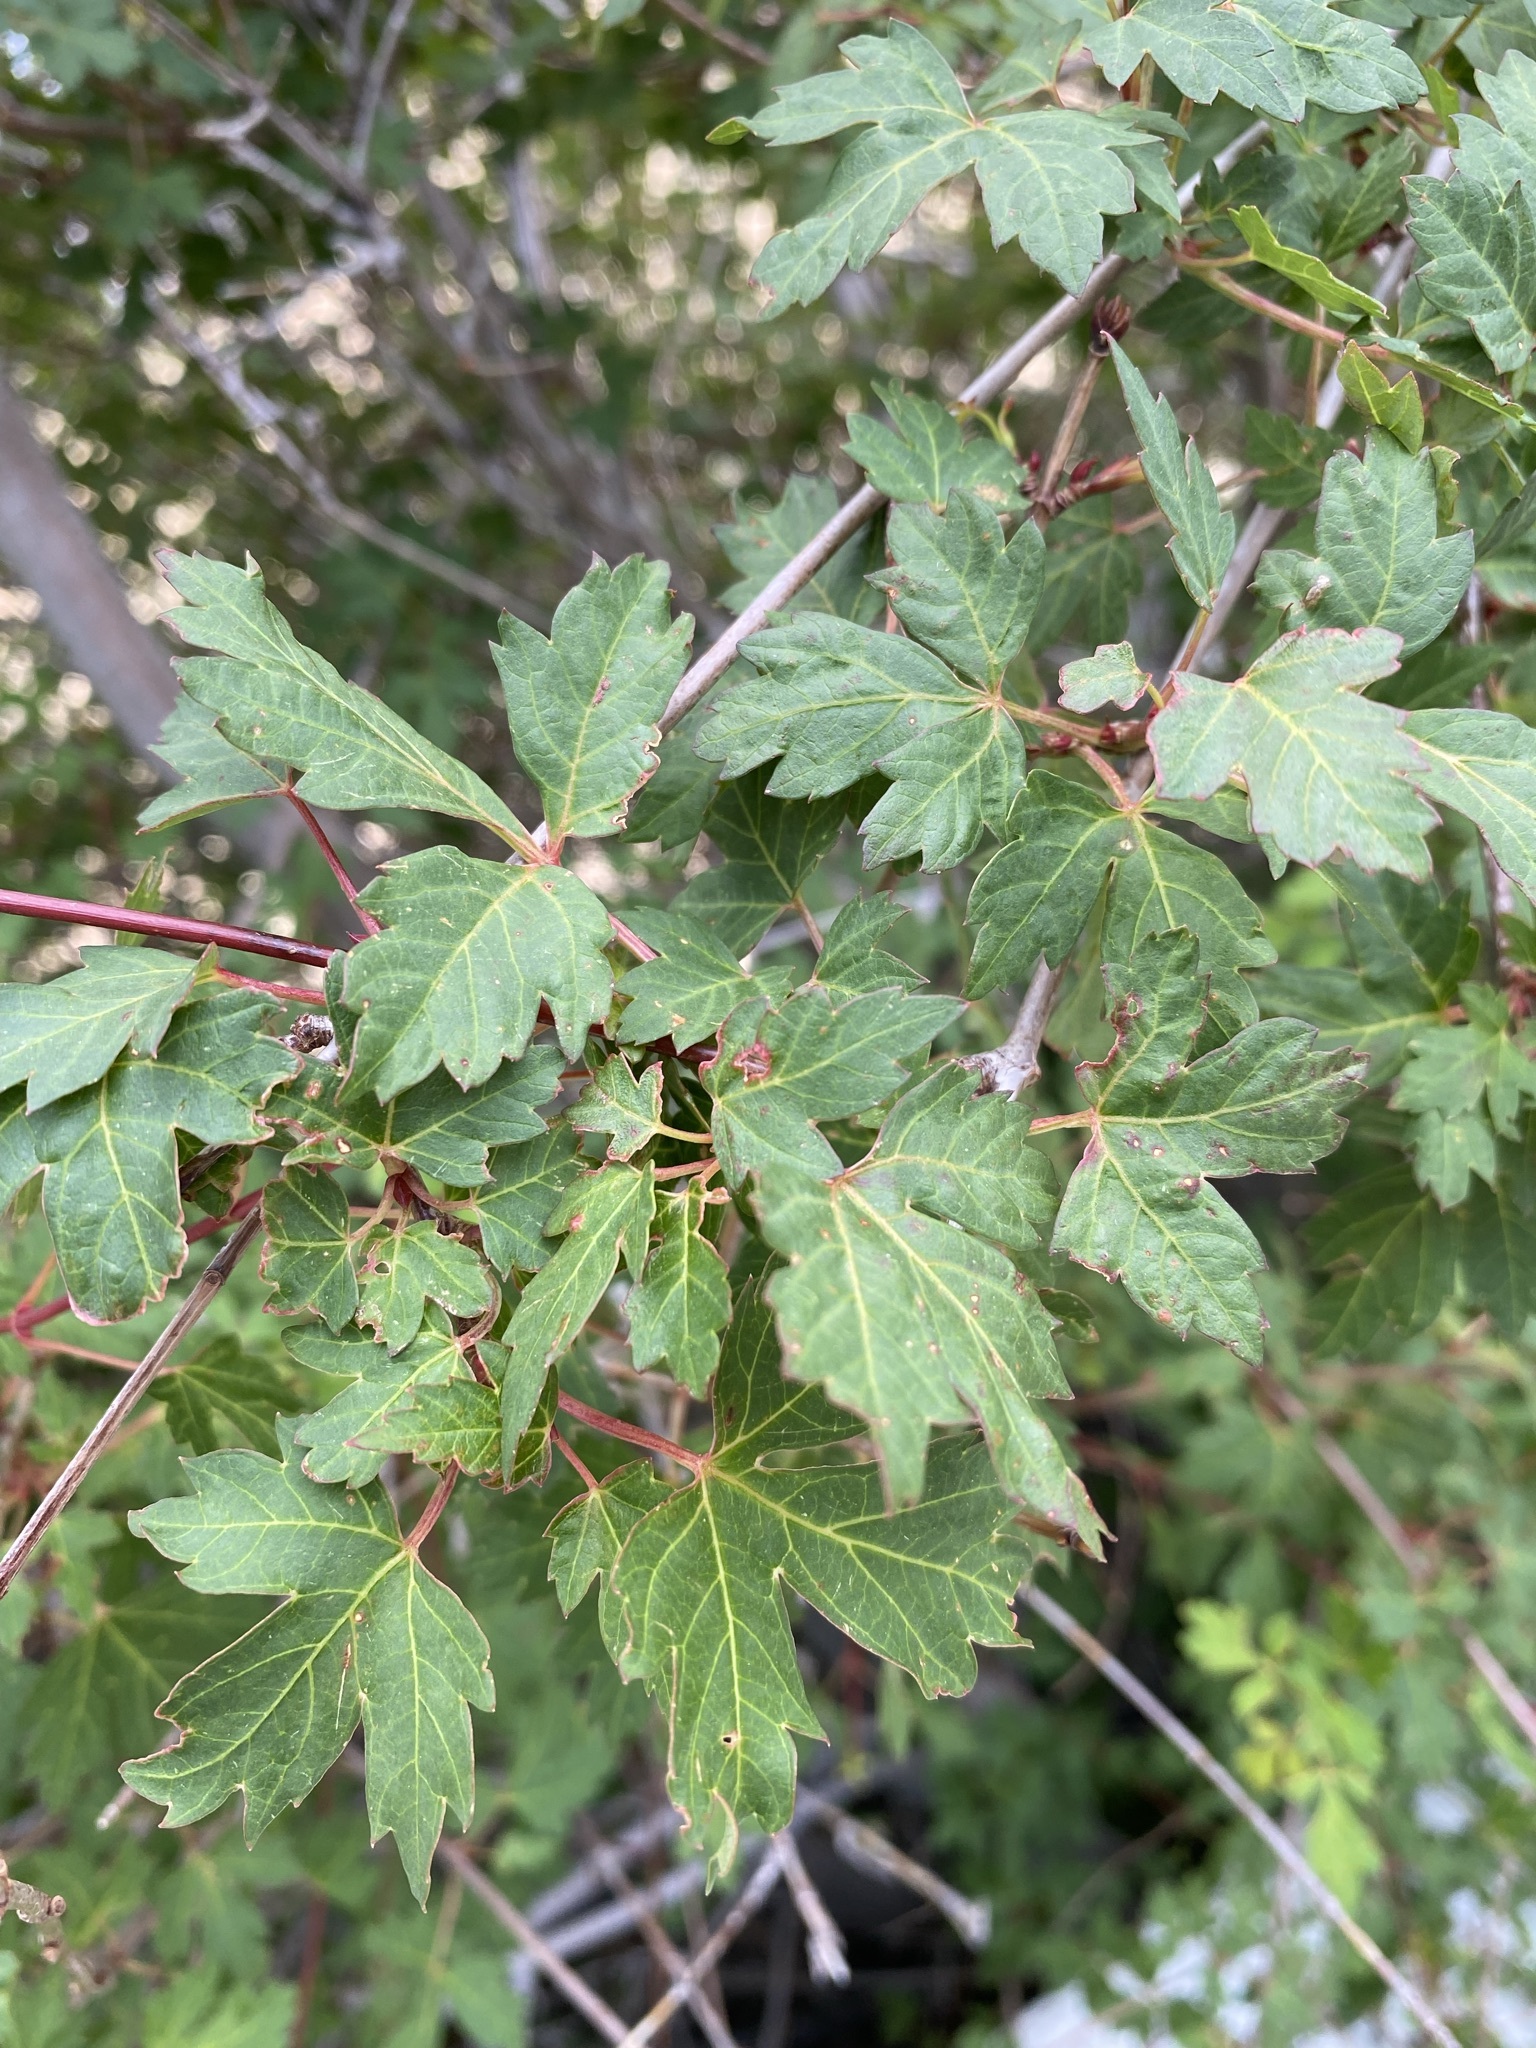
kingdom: Plantae
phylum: Tracheophyta
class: Magnoliopsida
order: Sapindales
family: Sapindaceae
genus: Acer
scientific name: Acer glabrum
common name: Rocky mountain maple
